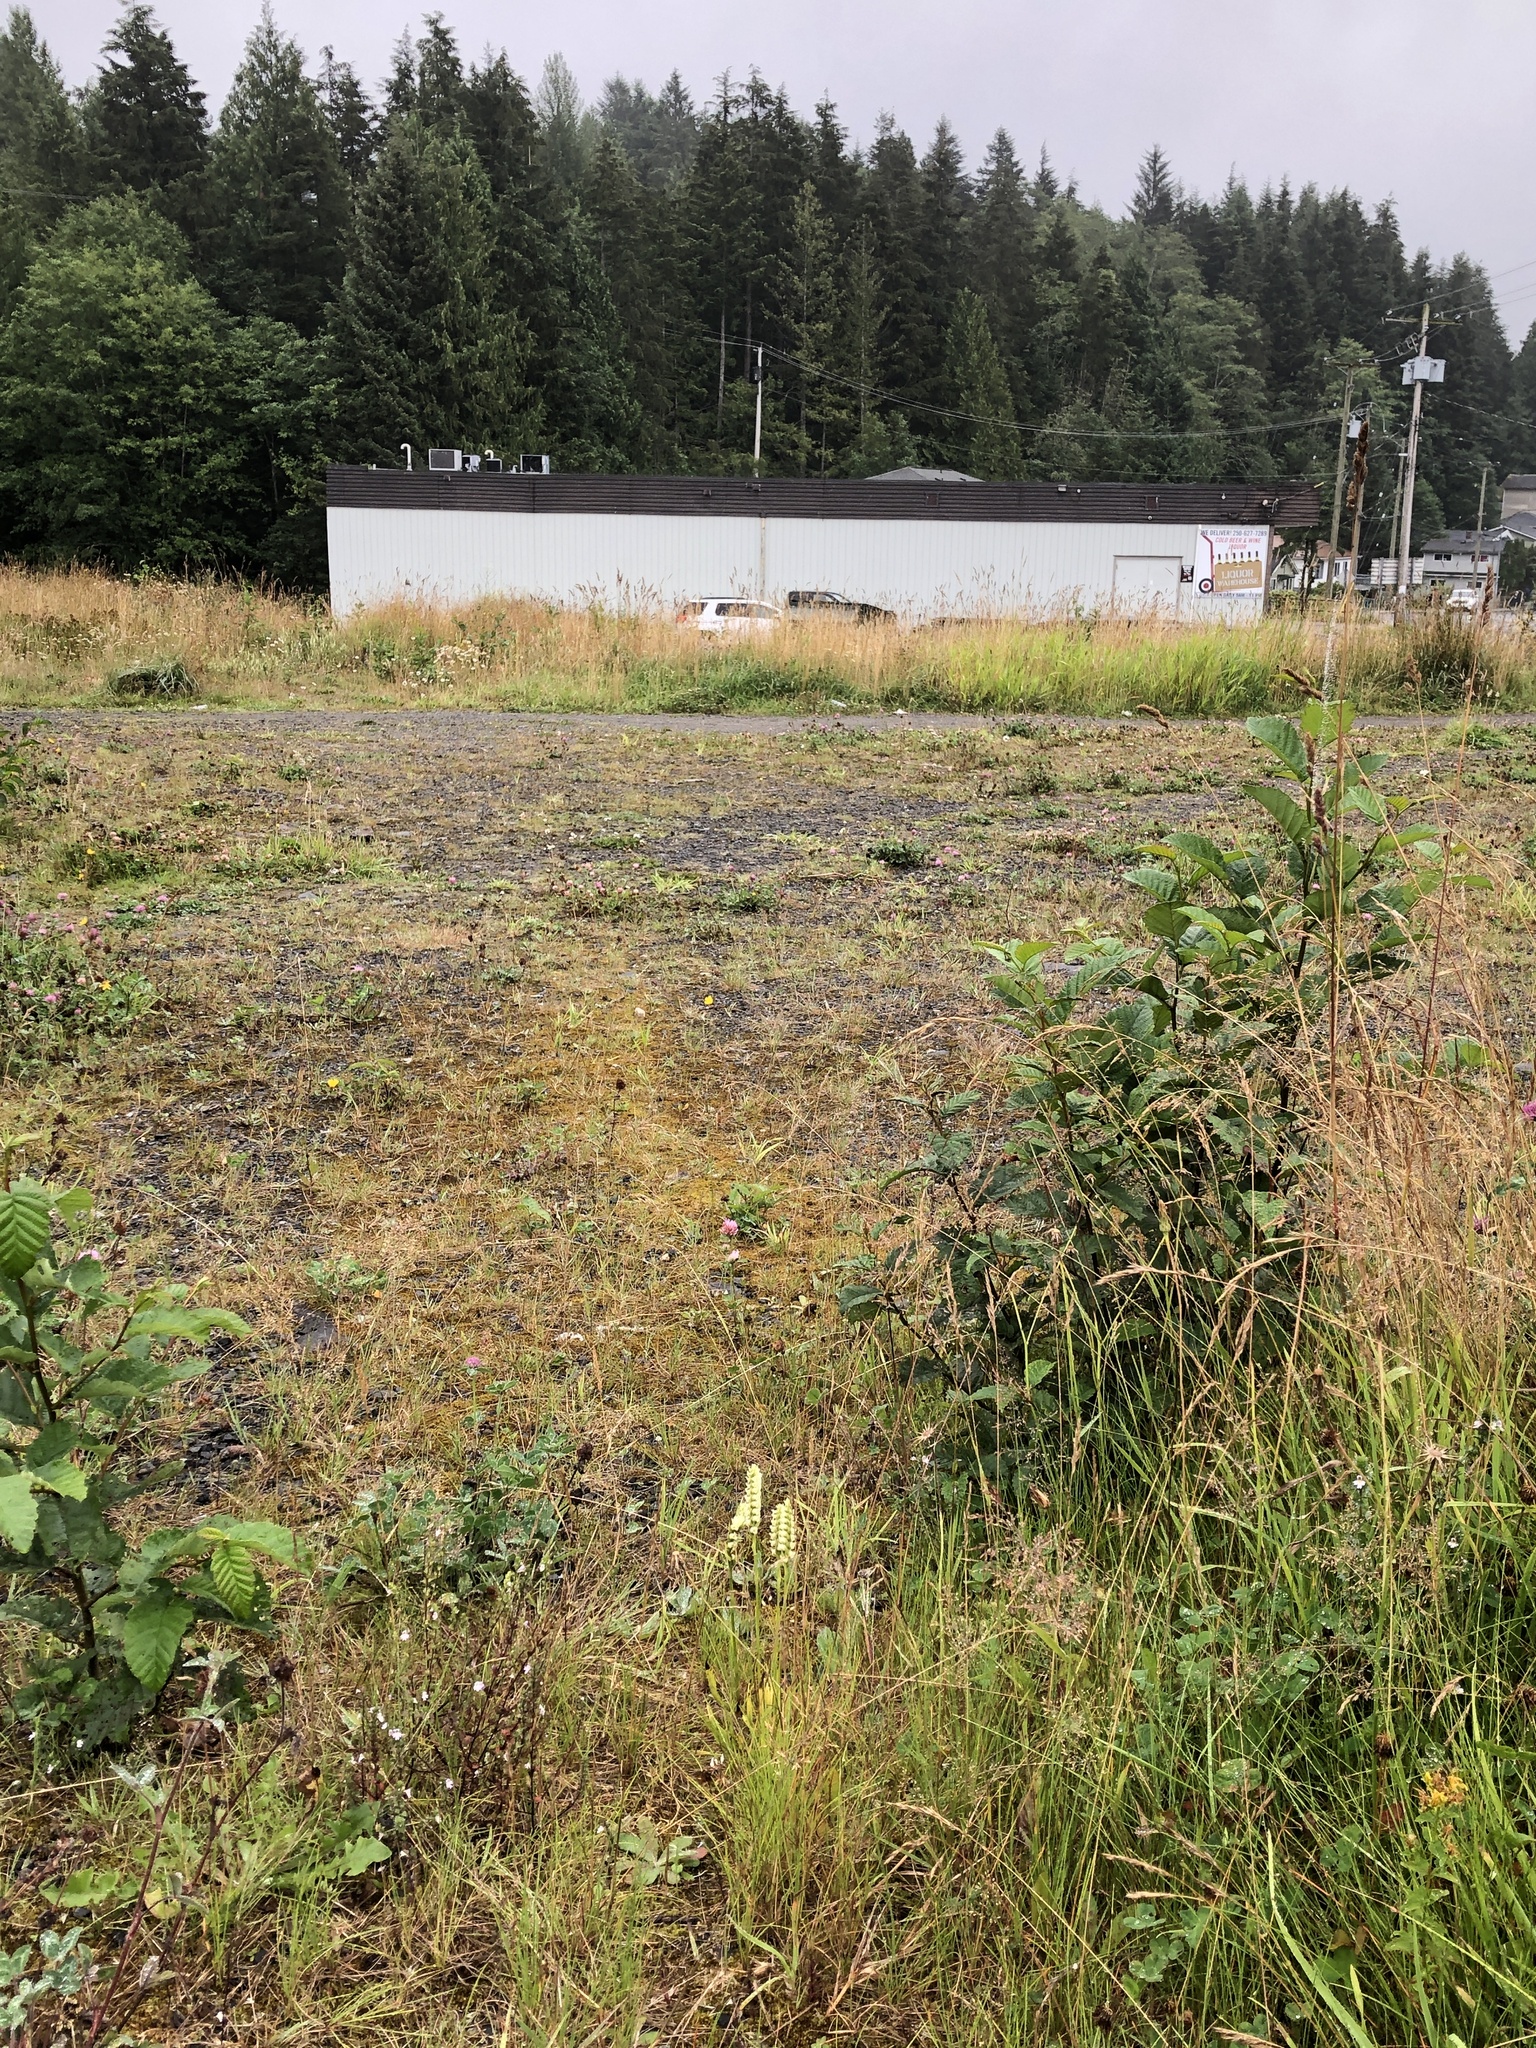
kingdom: Plantae
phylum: Tracheophyta
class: Liliopsida
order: Asparagales
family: Orchidaceae
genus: Spiranthes
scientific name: Spiranthes romanzoffiana
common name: Irish lady's-tresses
